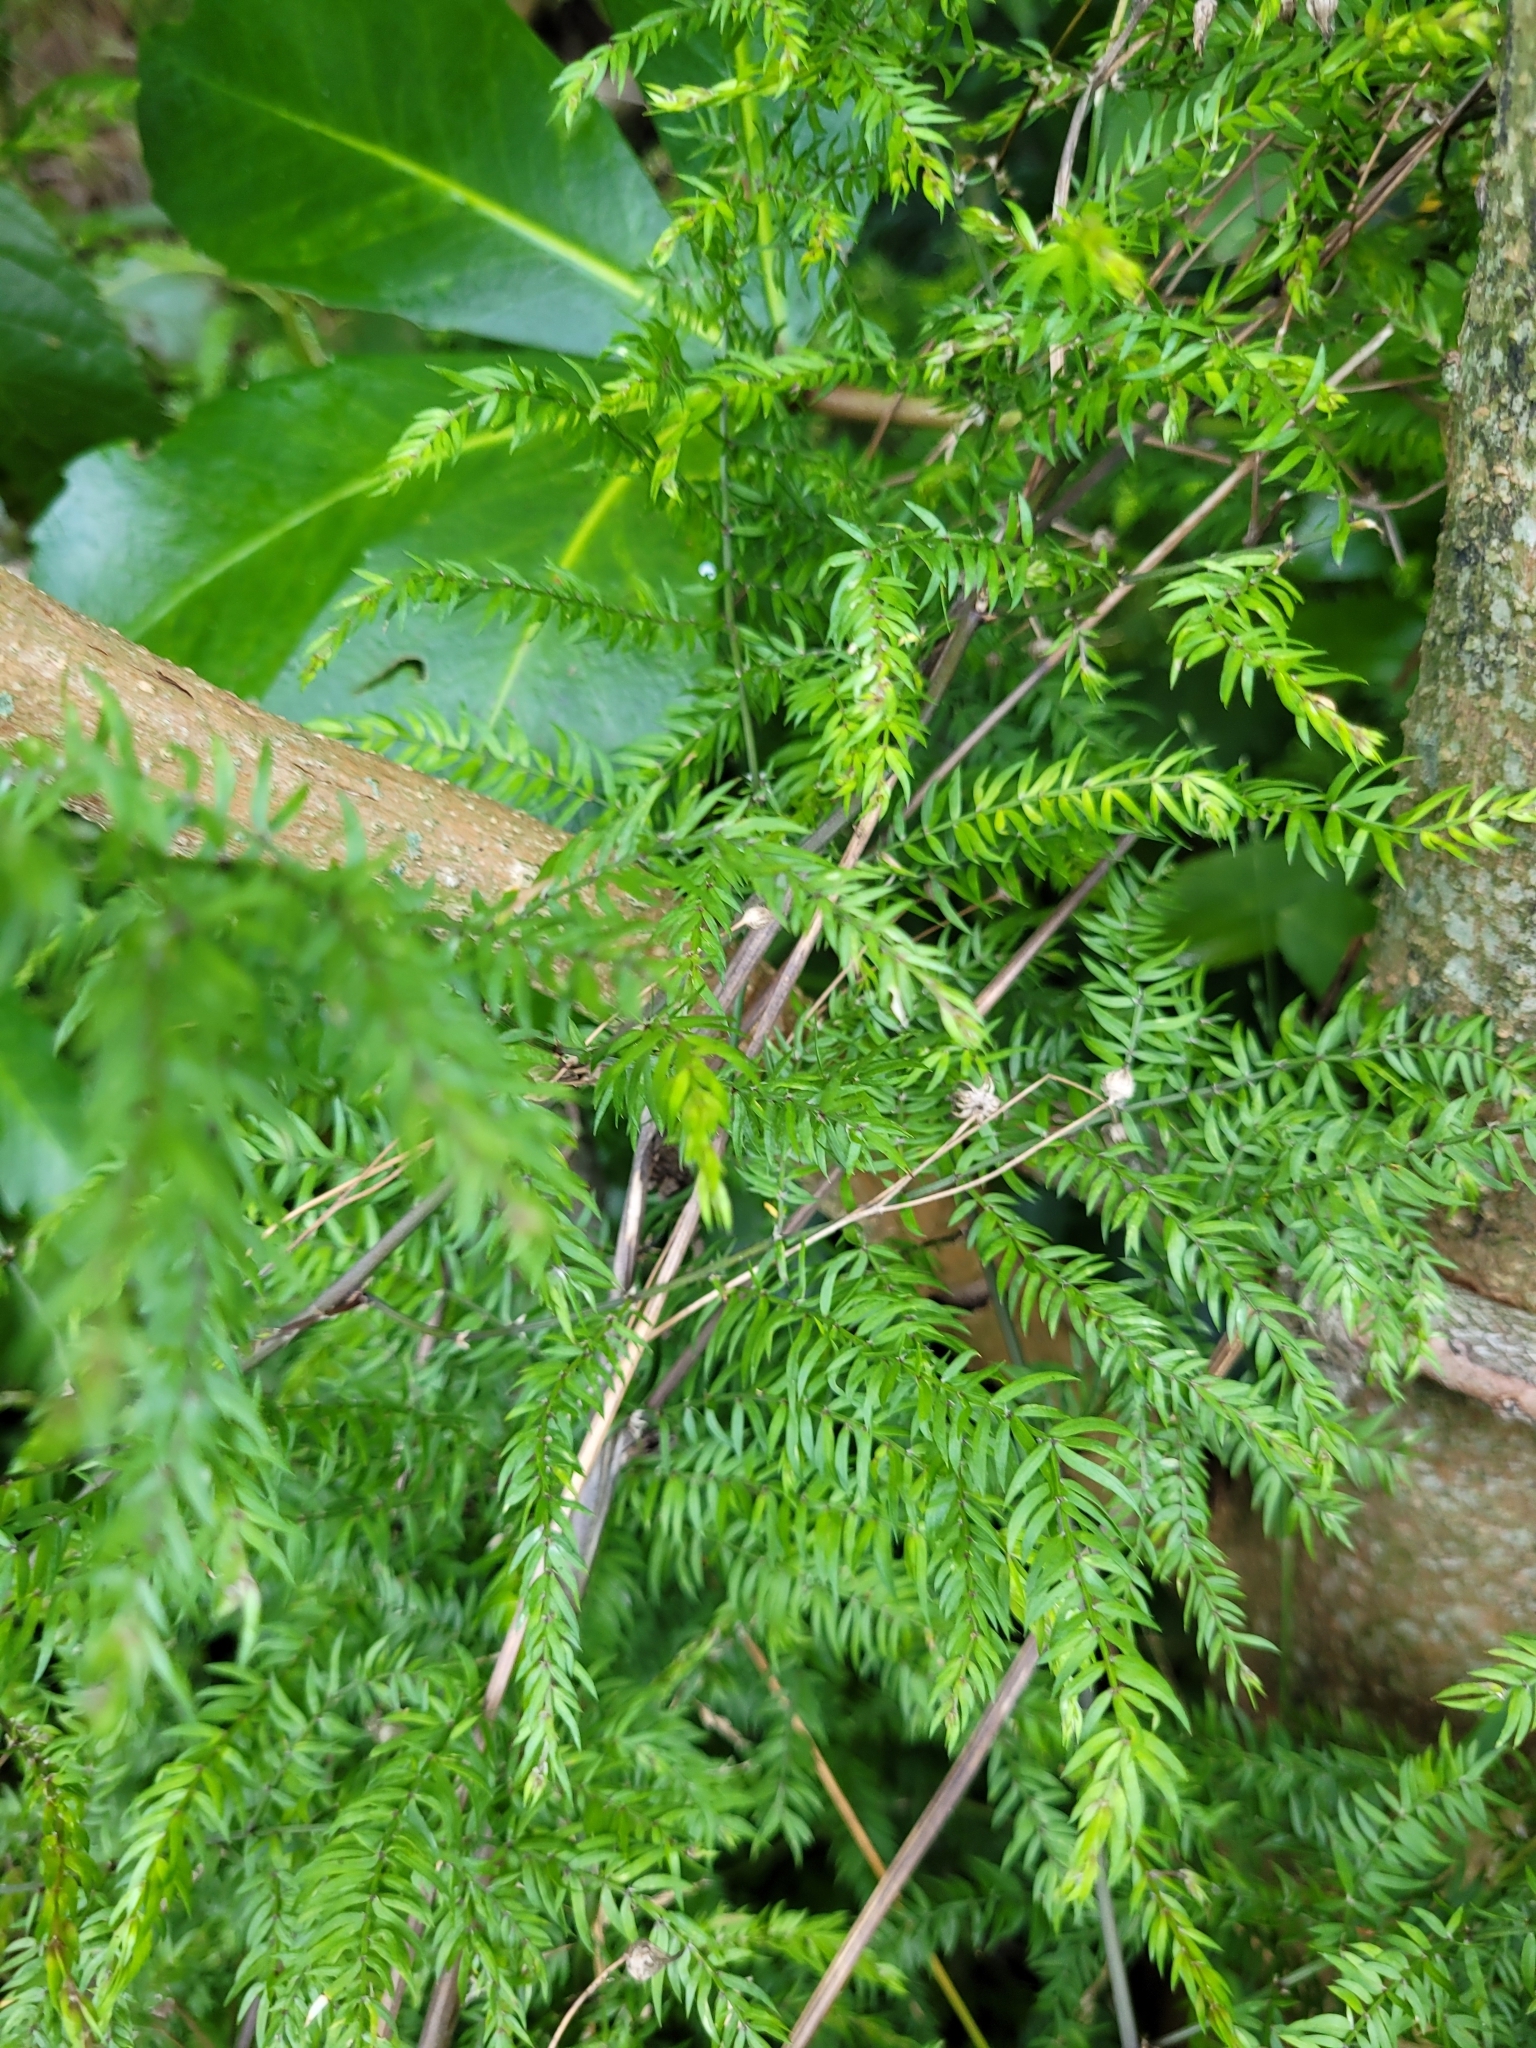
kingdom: Plantae
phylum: Tracheophyta
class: Liliopsida
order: Asparagales
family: Asparagaceae
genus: Asparagus
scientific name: Asparagus scandens
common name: Asparagus-fern
